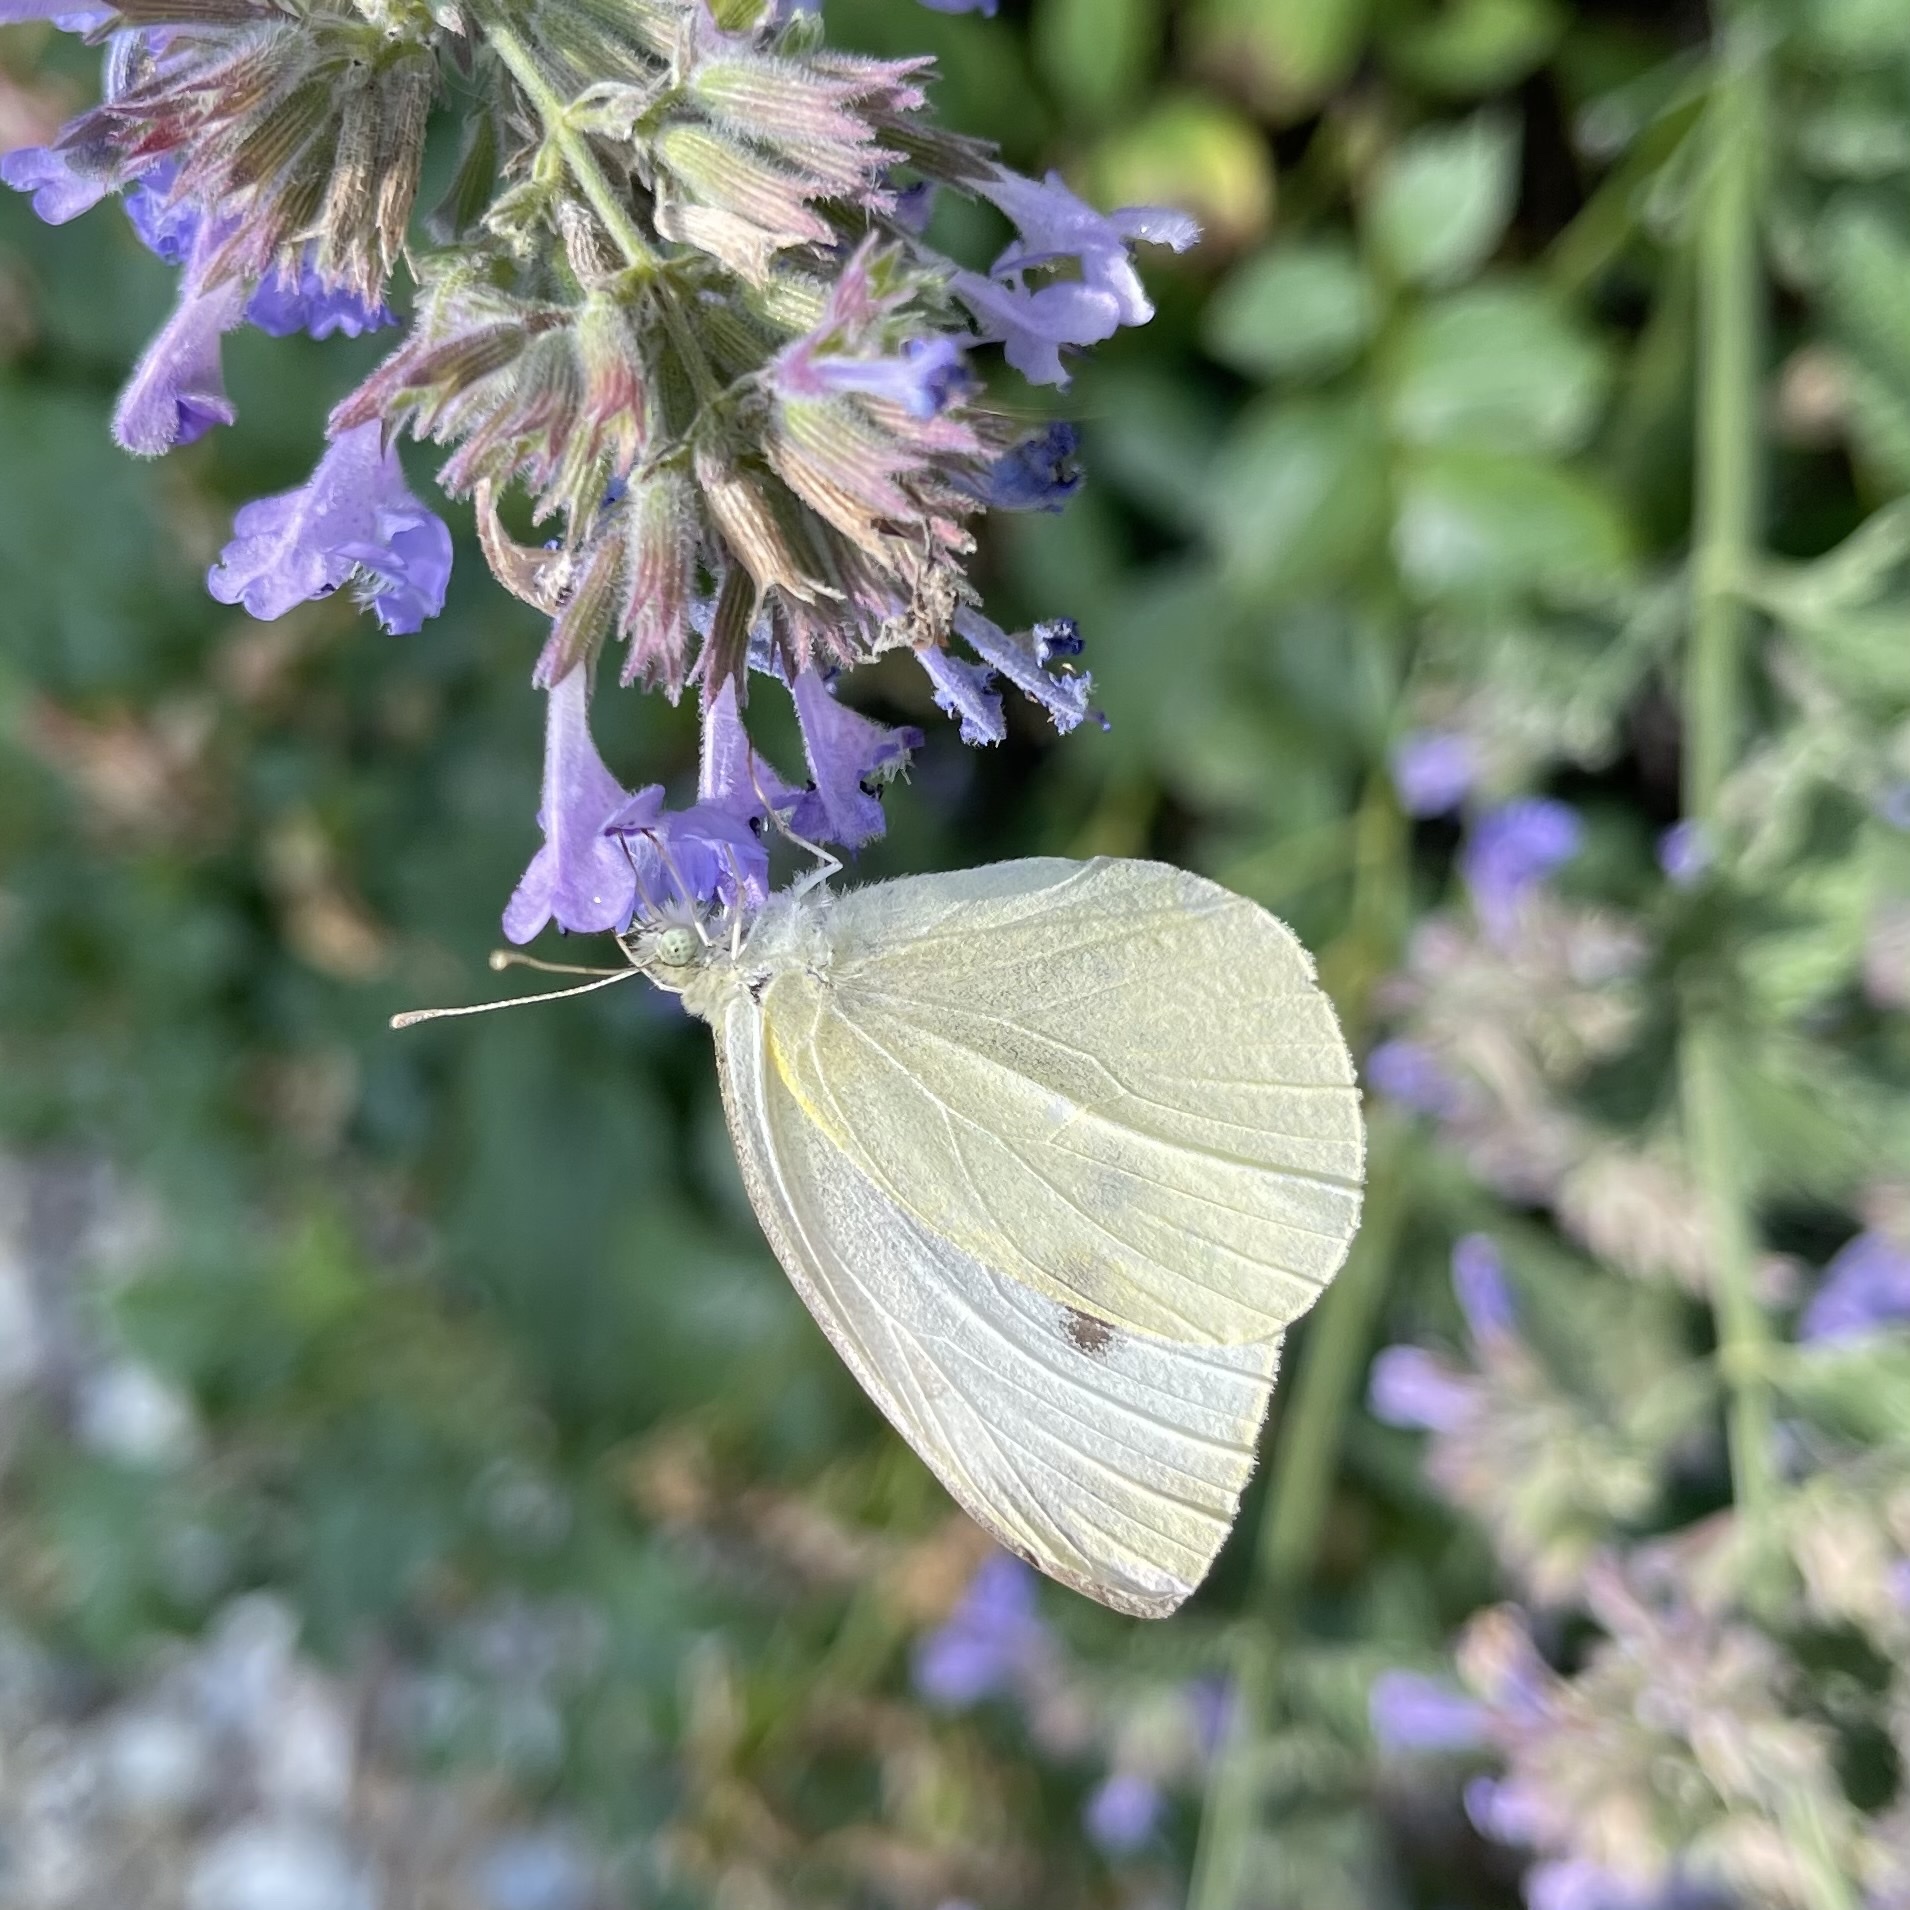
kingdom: Animalia
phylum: Arthropoda
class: Insecta
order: Lepidoptera
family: Pieridae
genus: Pieris
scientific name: Pieris rapae
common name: Small white
